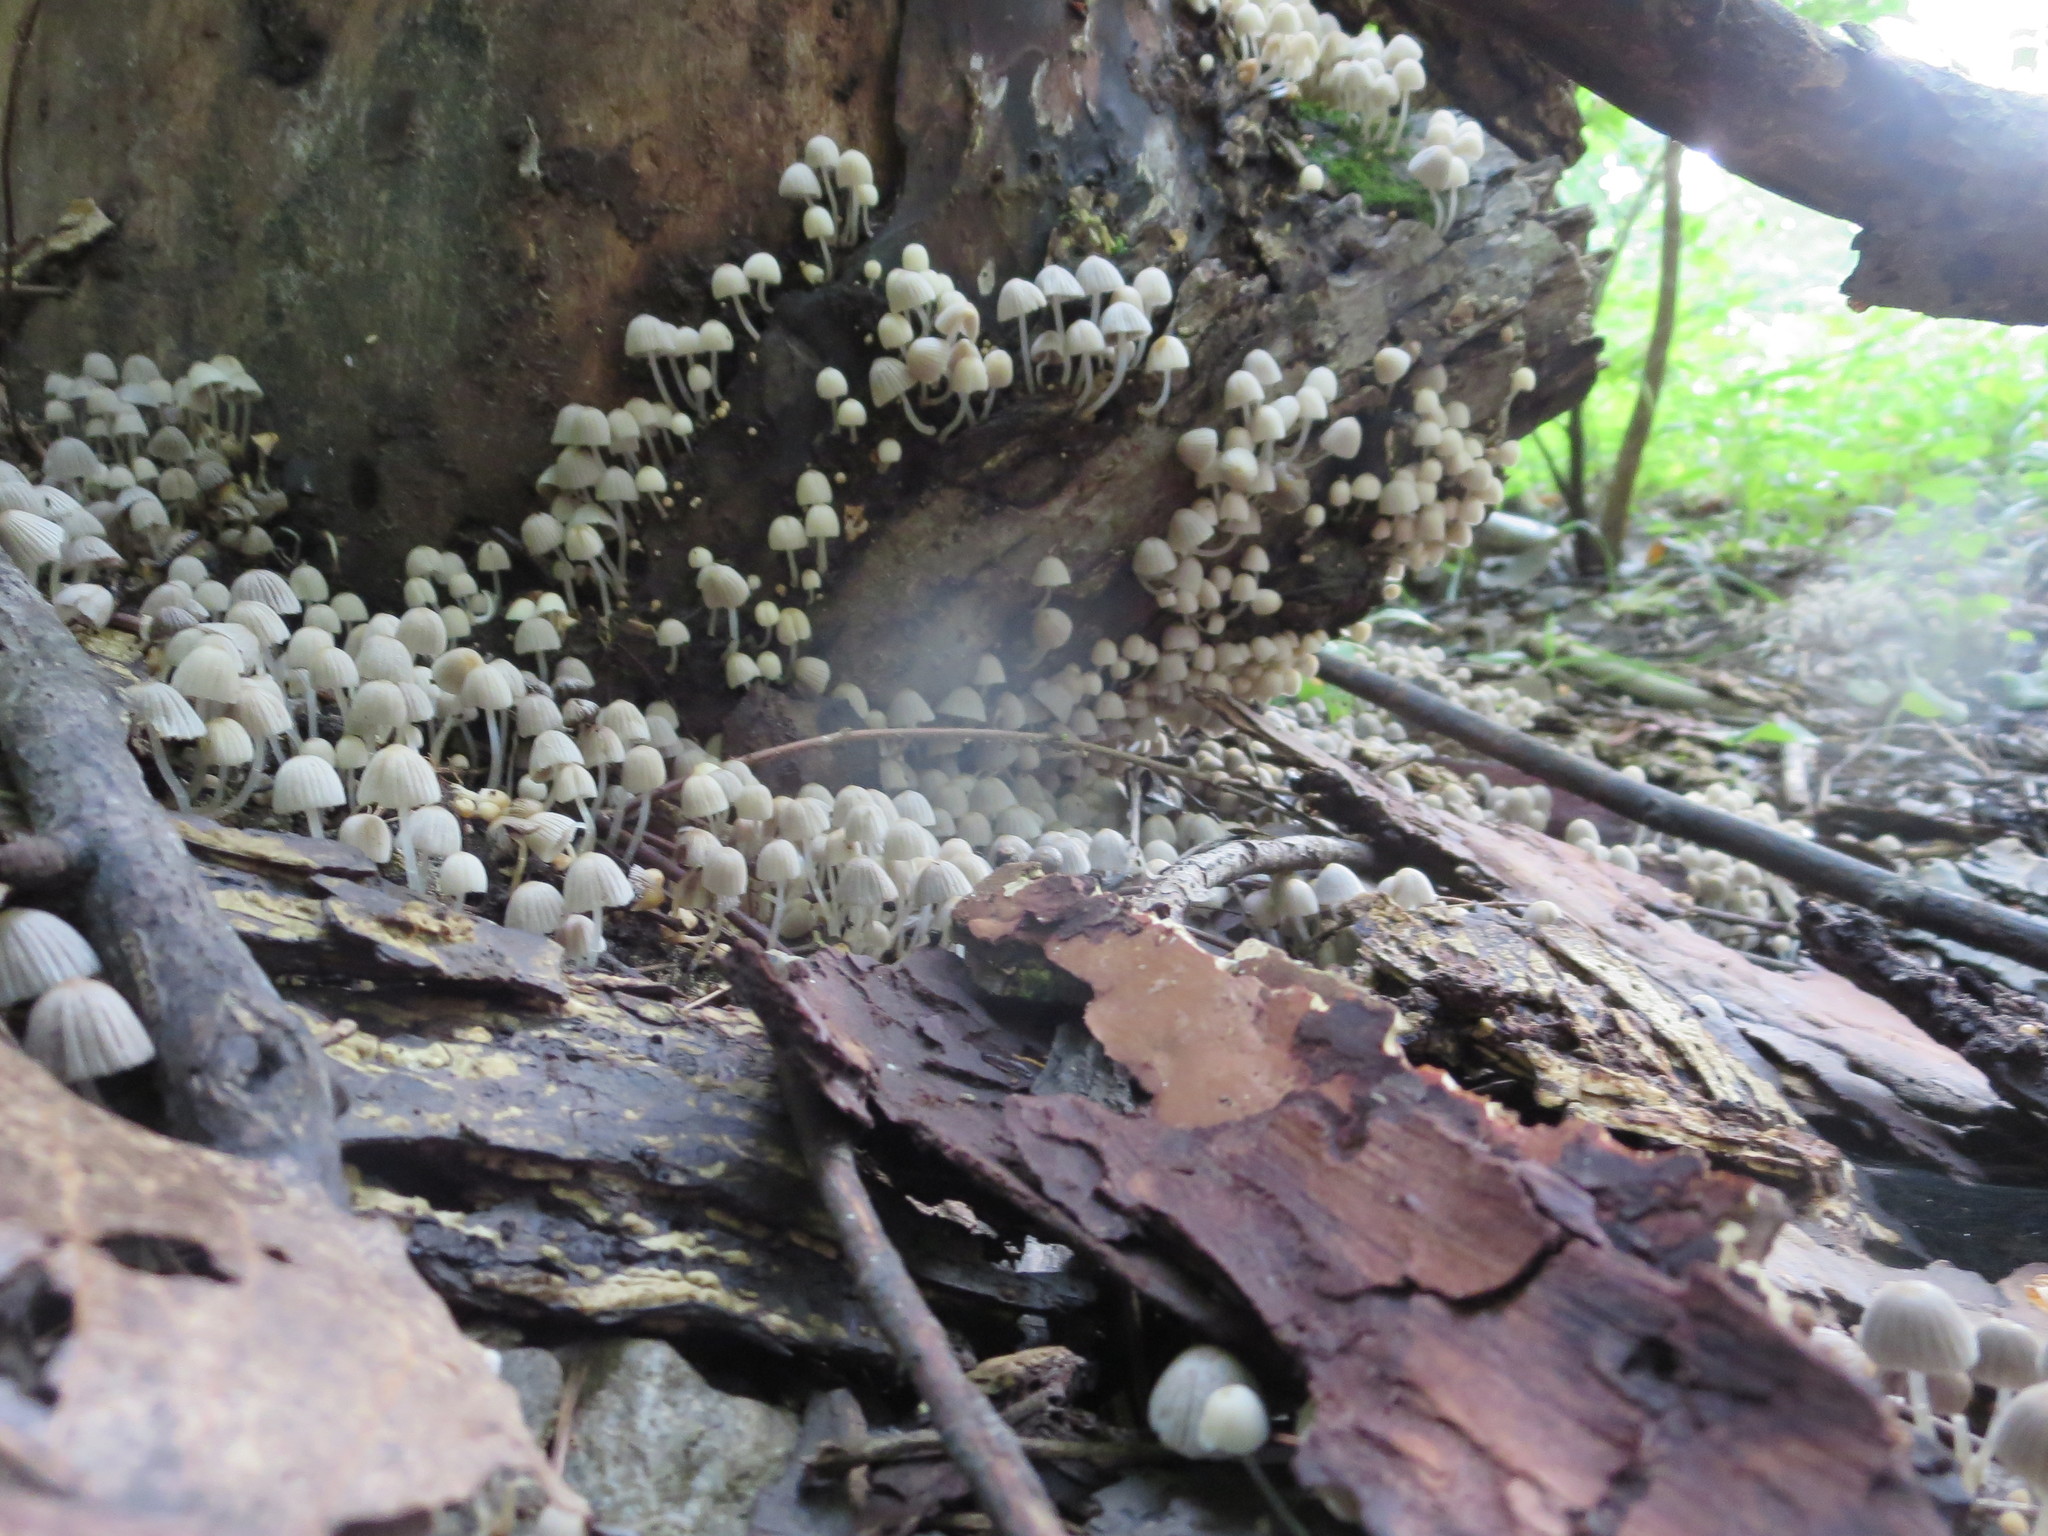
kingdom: Fungi
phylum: Basidiomycota
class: Agaricomycetes
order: Agaricales
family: Psathyrellaceae
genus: Coprinellus
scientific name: Coprinellus disseminatus
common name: Fairies' bonnets
